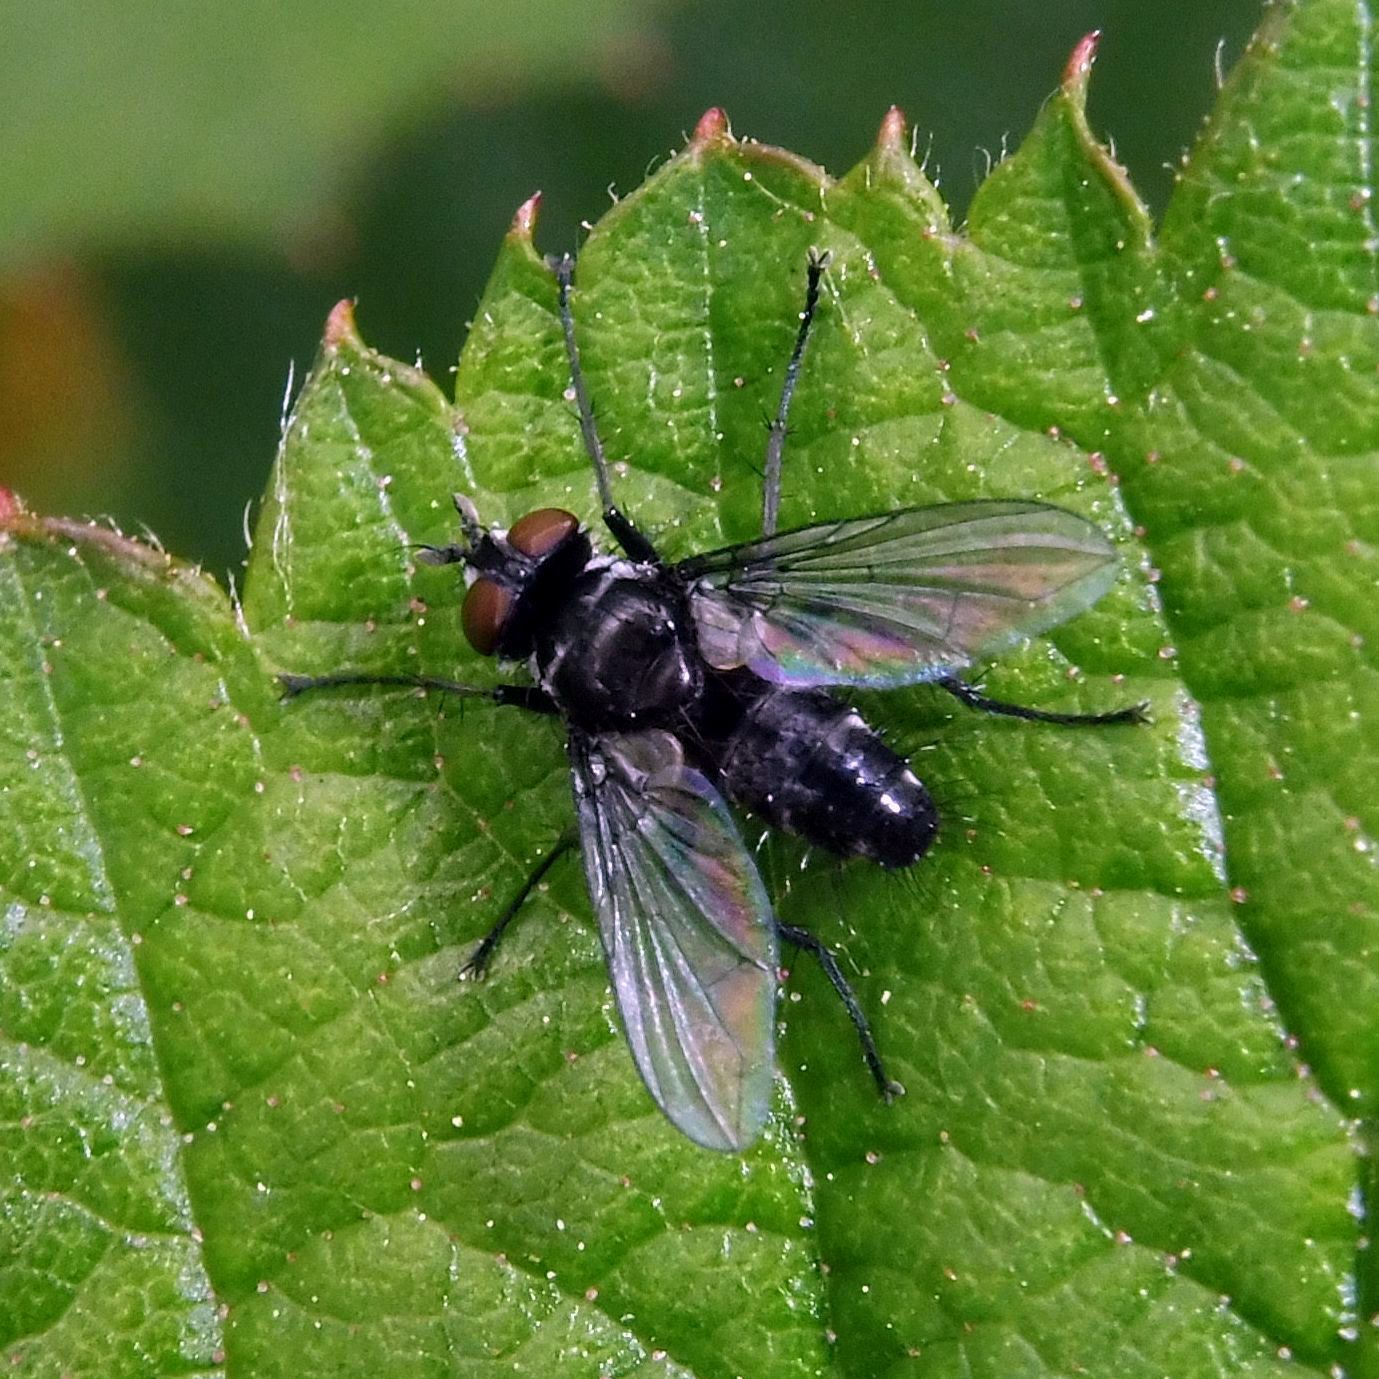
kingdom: Animalia
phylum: Arthropoda
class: Insecta
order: Diptera
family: Tachinidae
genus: Phania
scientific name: Phania funesta
